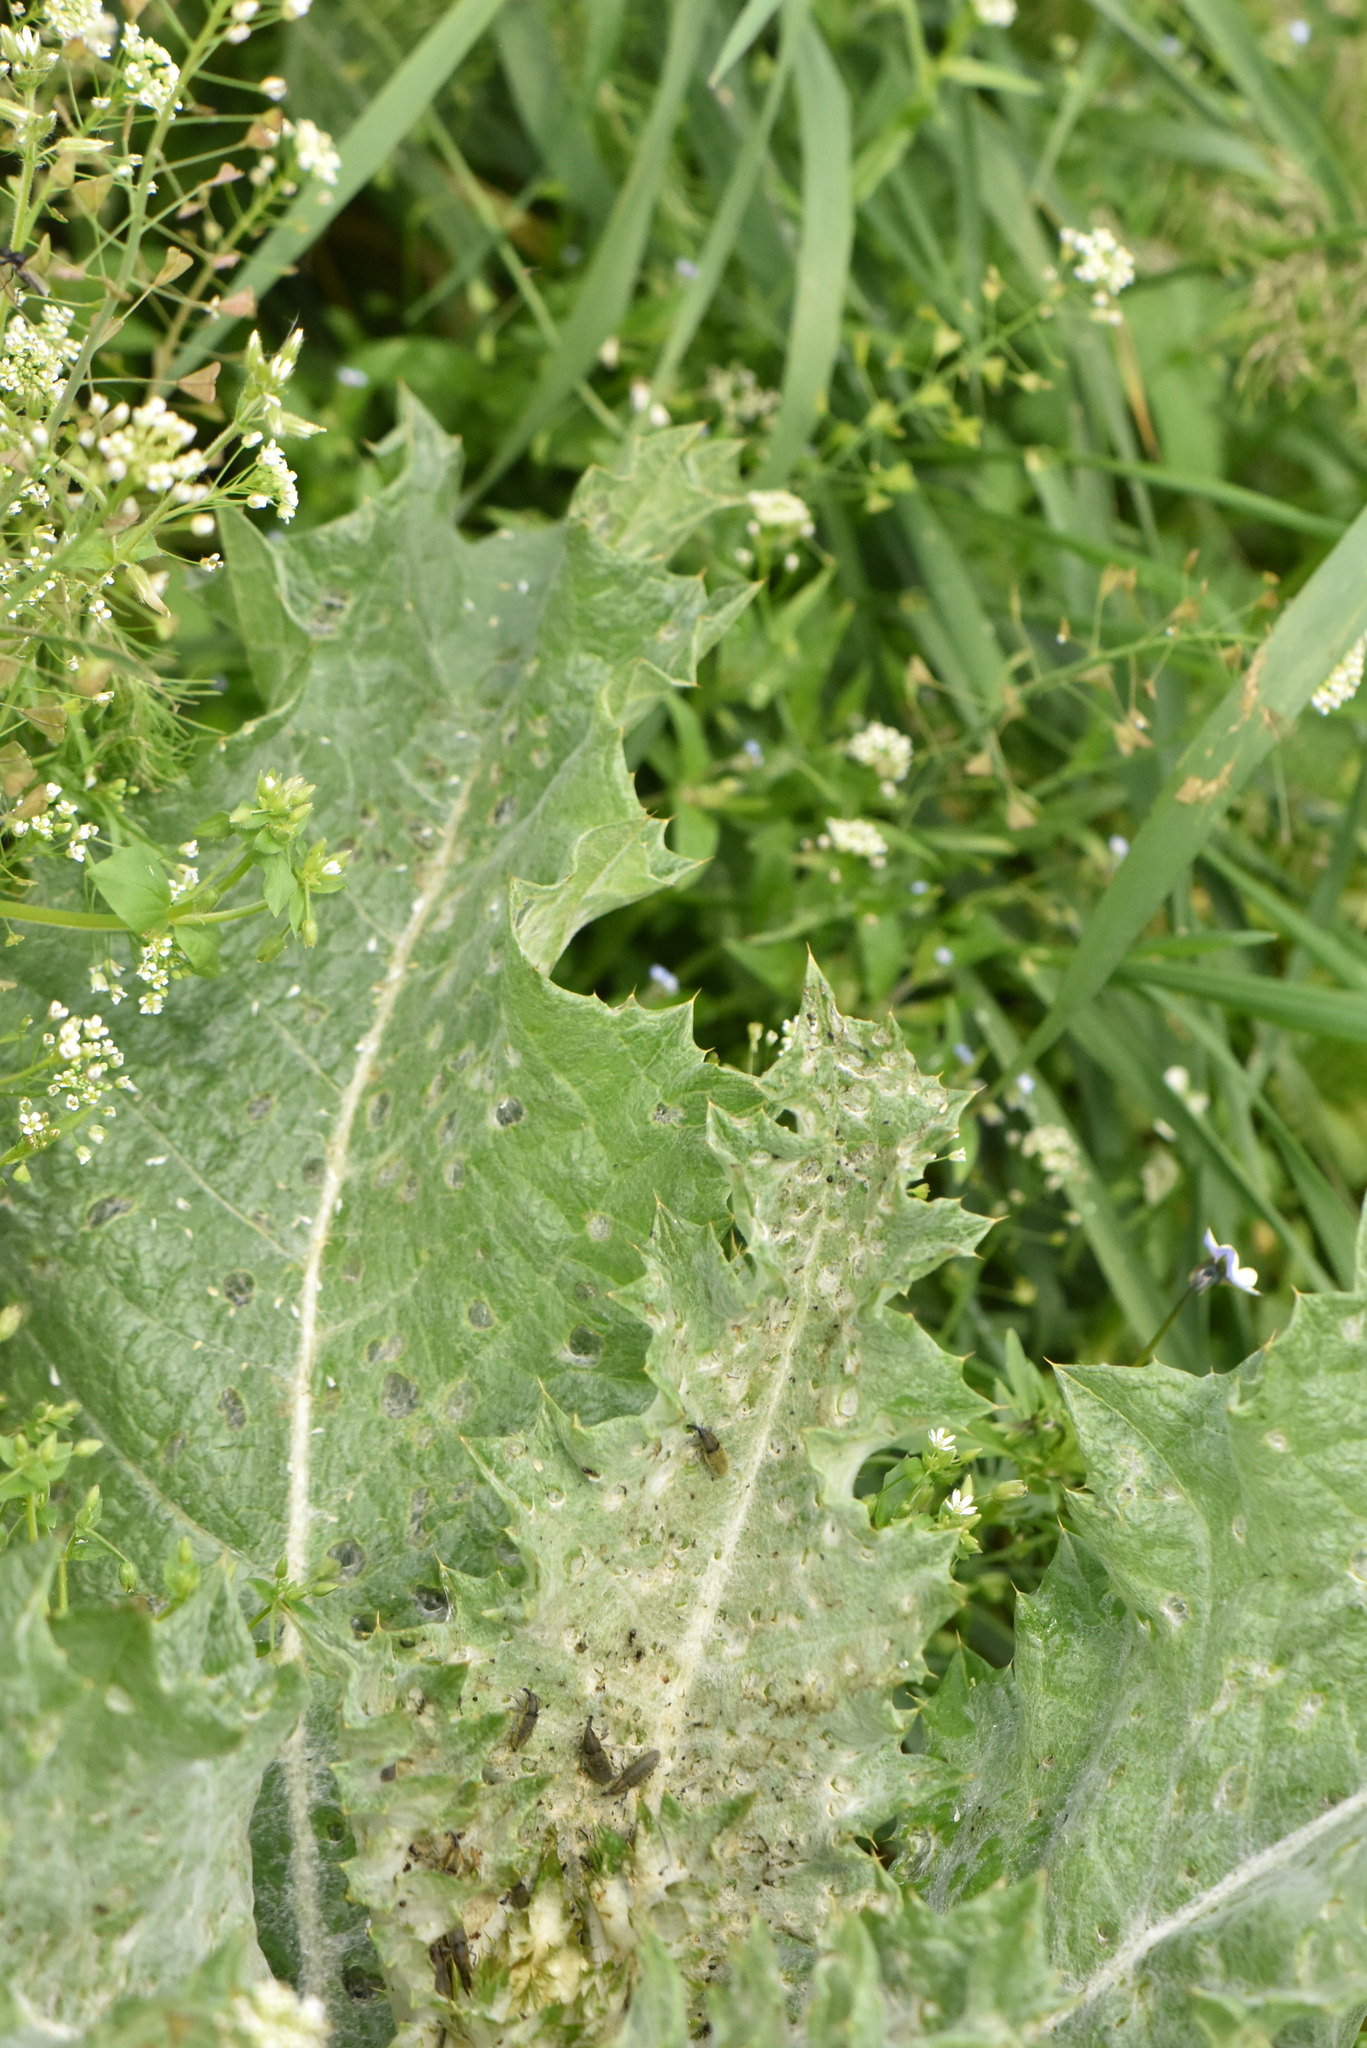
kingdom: Plantae
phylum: Tracheophyta
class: Magnoliopsida
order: Asterales
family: Asteraceae
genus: Onopordum
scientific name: Onopordum acanthium
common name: Scotch thistle
